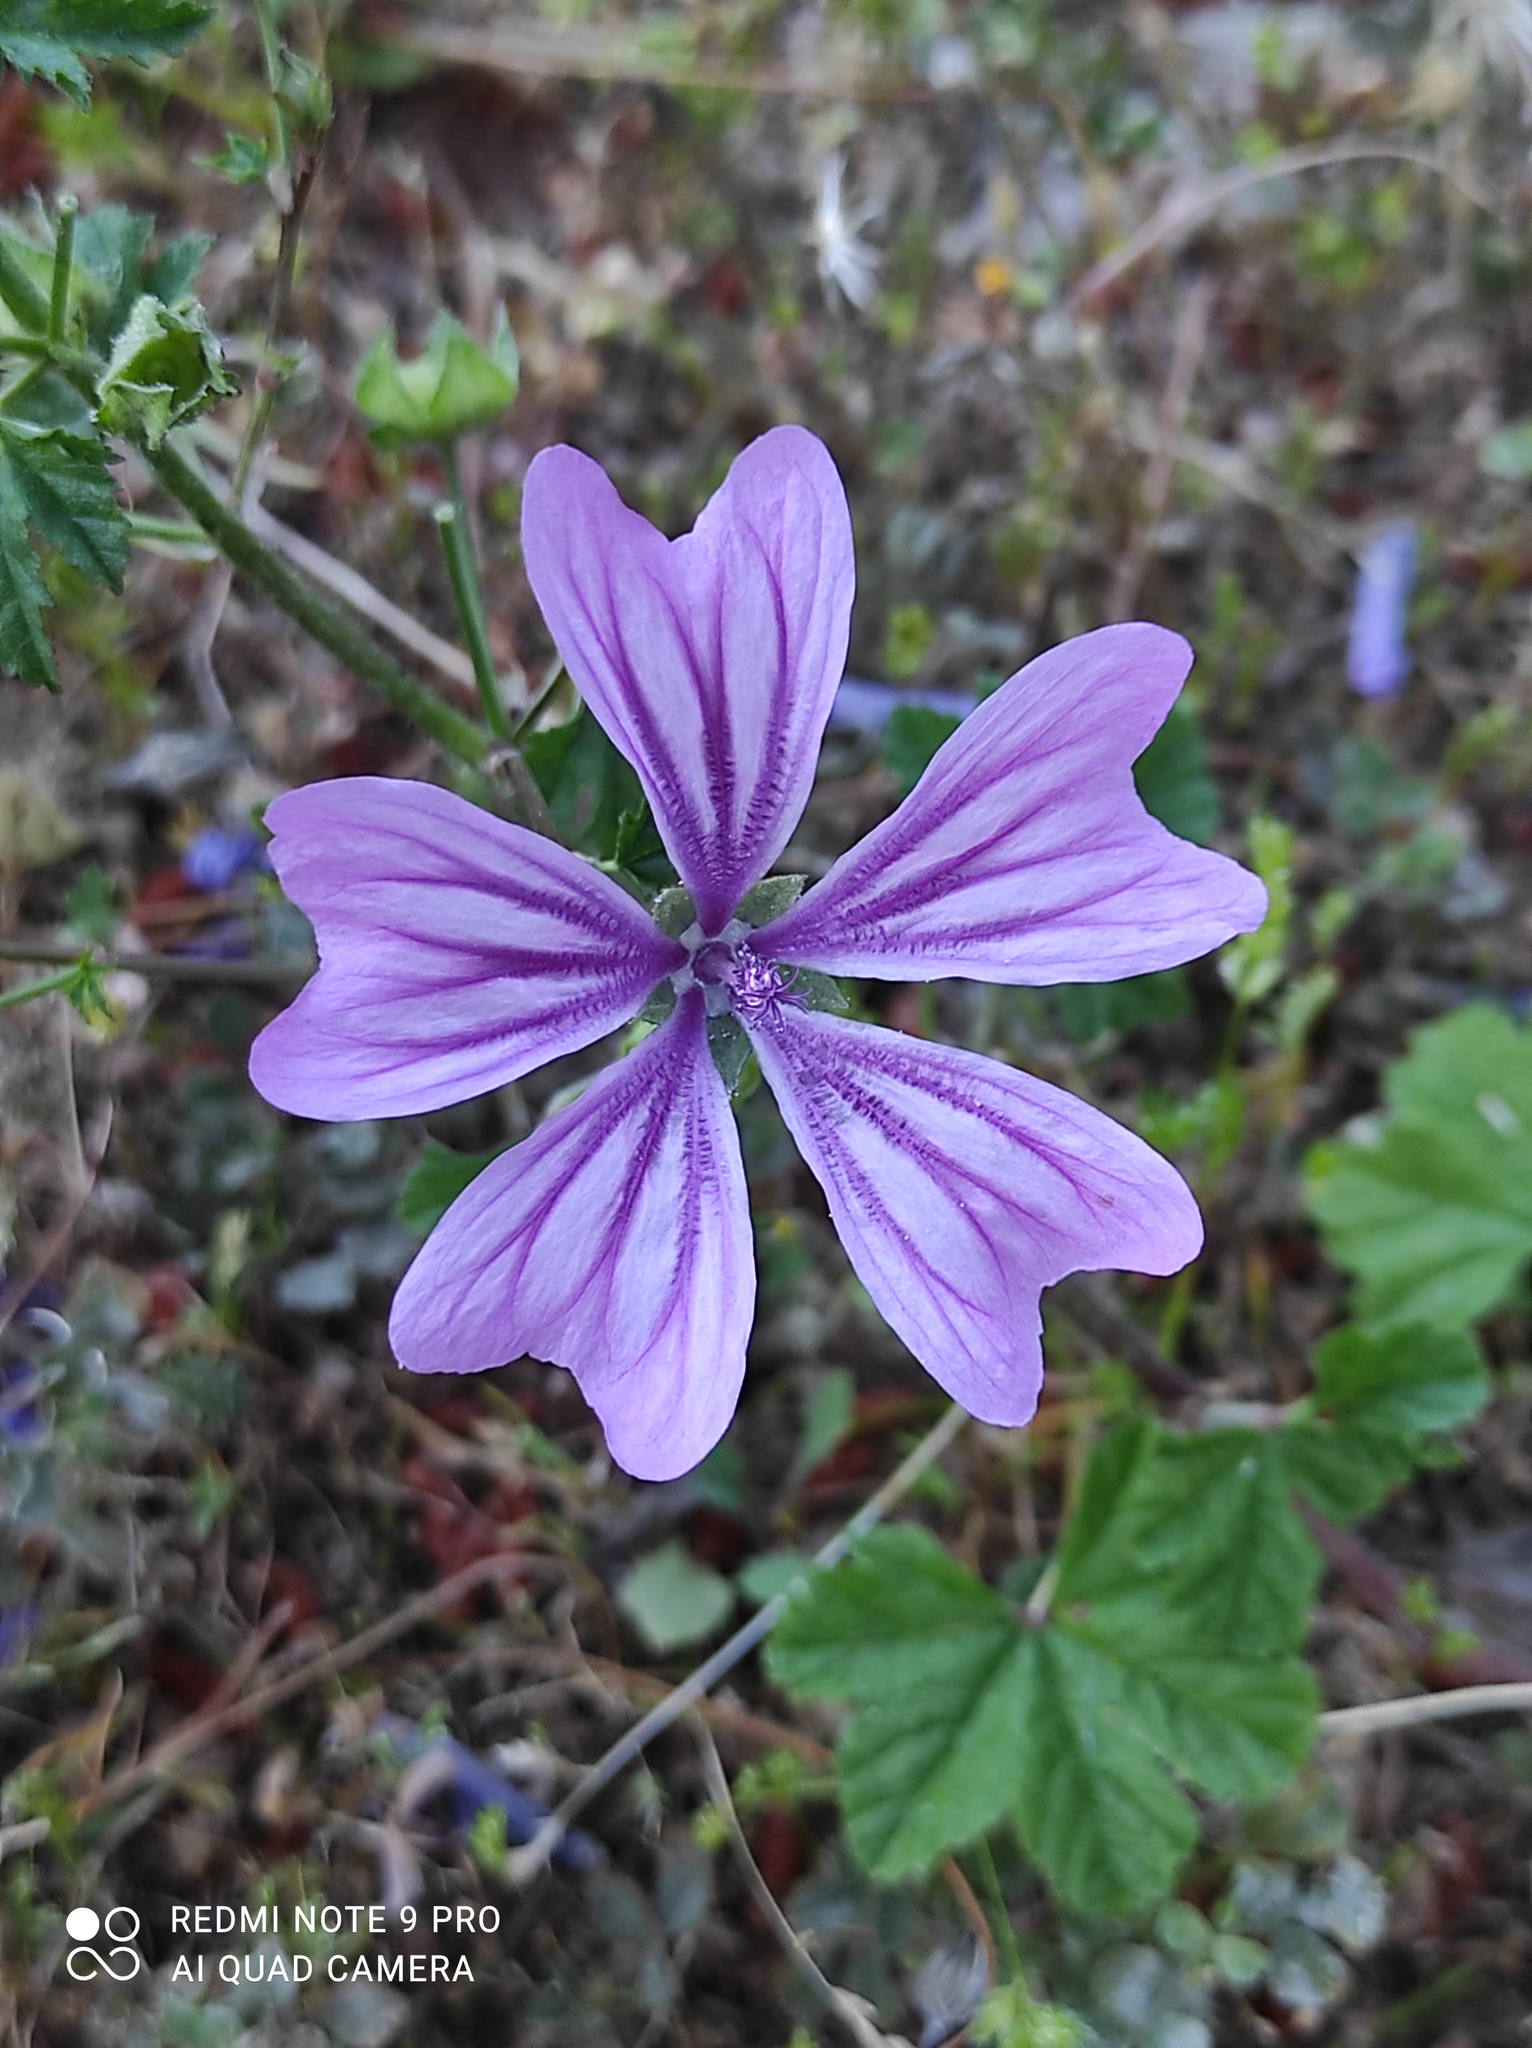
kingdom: Plantae
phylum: Tracheophyta
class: Magnoliopsida
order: Malvales
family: Malvaceae
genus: Malva
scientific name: Malva sylvestris
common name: Common mallow
